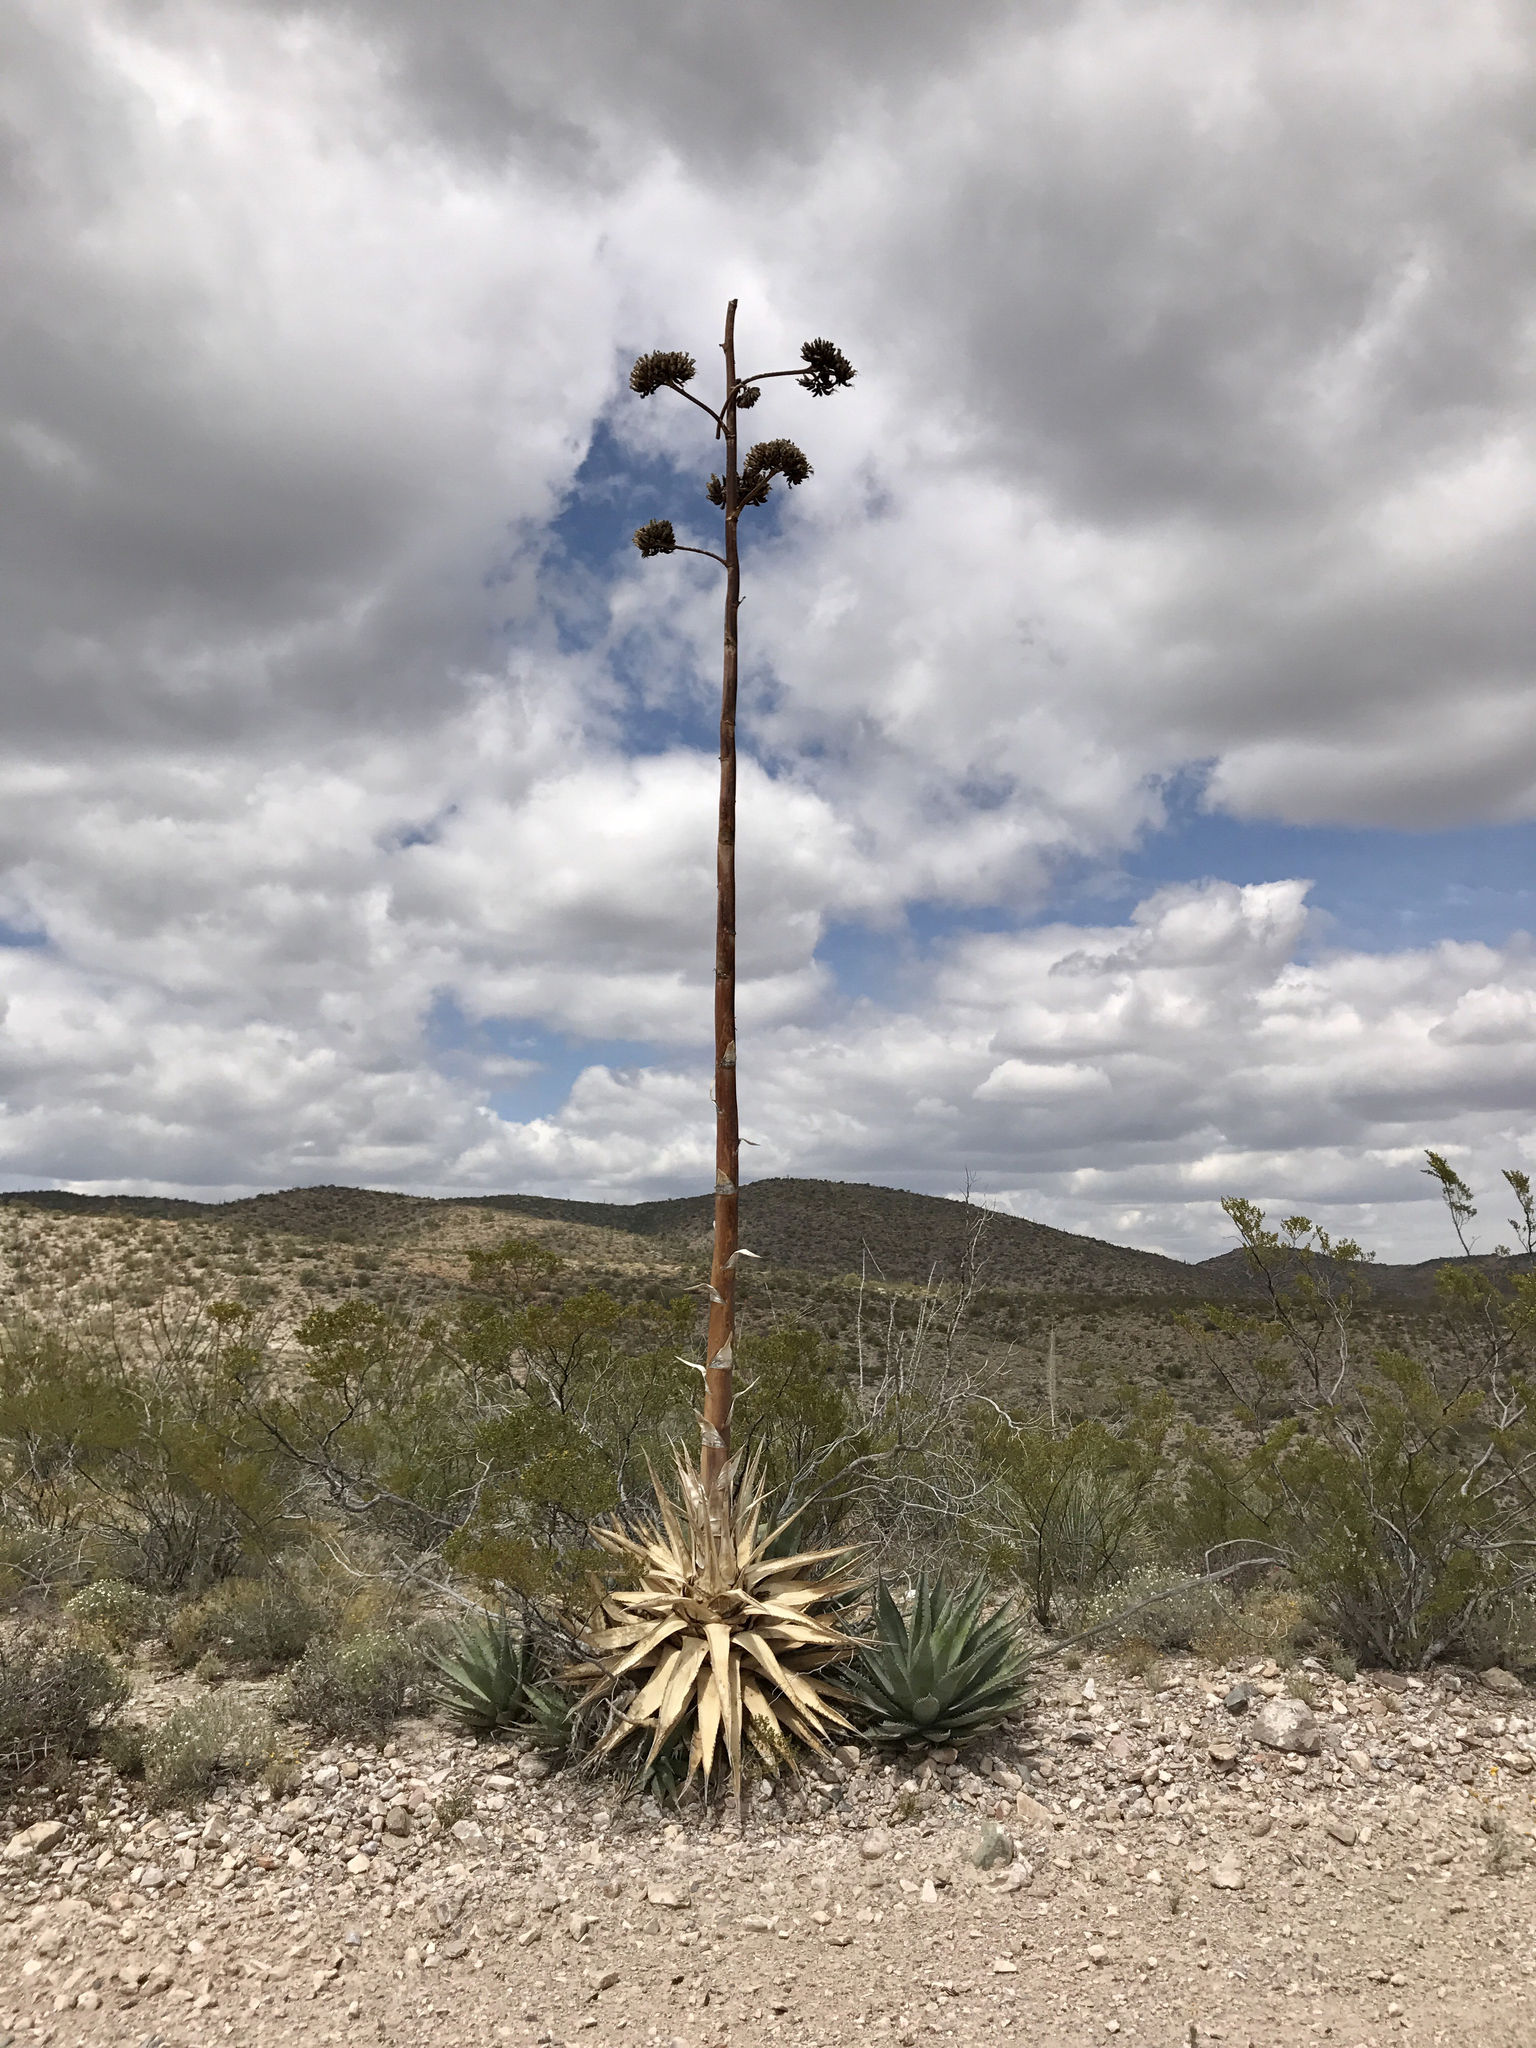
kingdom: Plantae
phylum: Tracheophyta
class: Liliopsida
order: Asparagales
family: Asparagaceae
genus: Agave
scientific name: Agave palmeri
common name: Palmer agave
